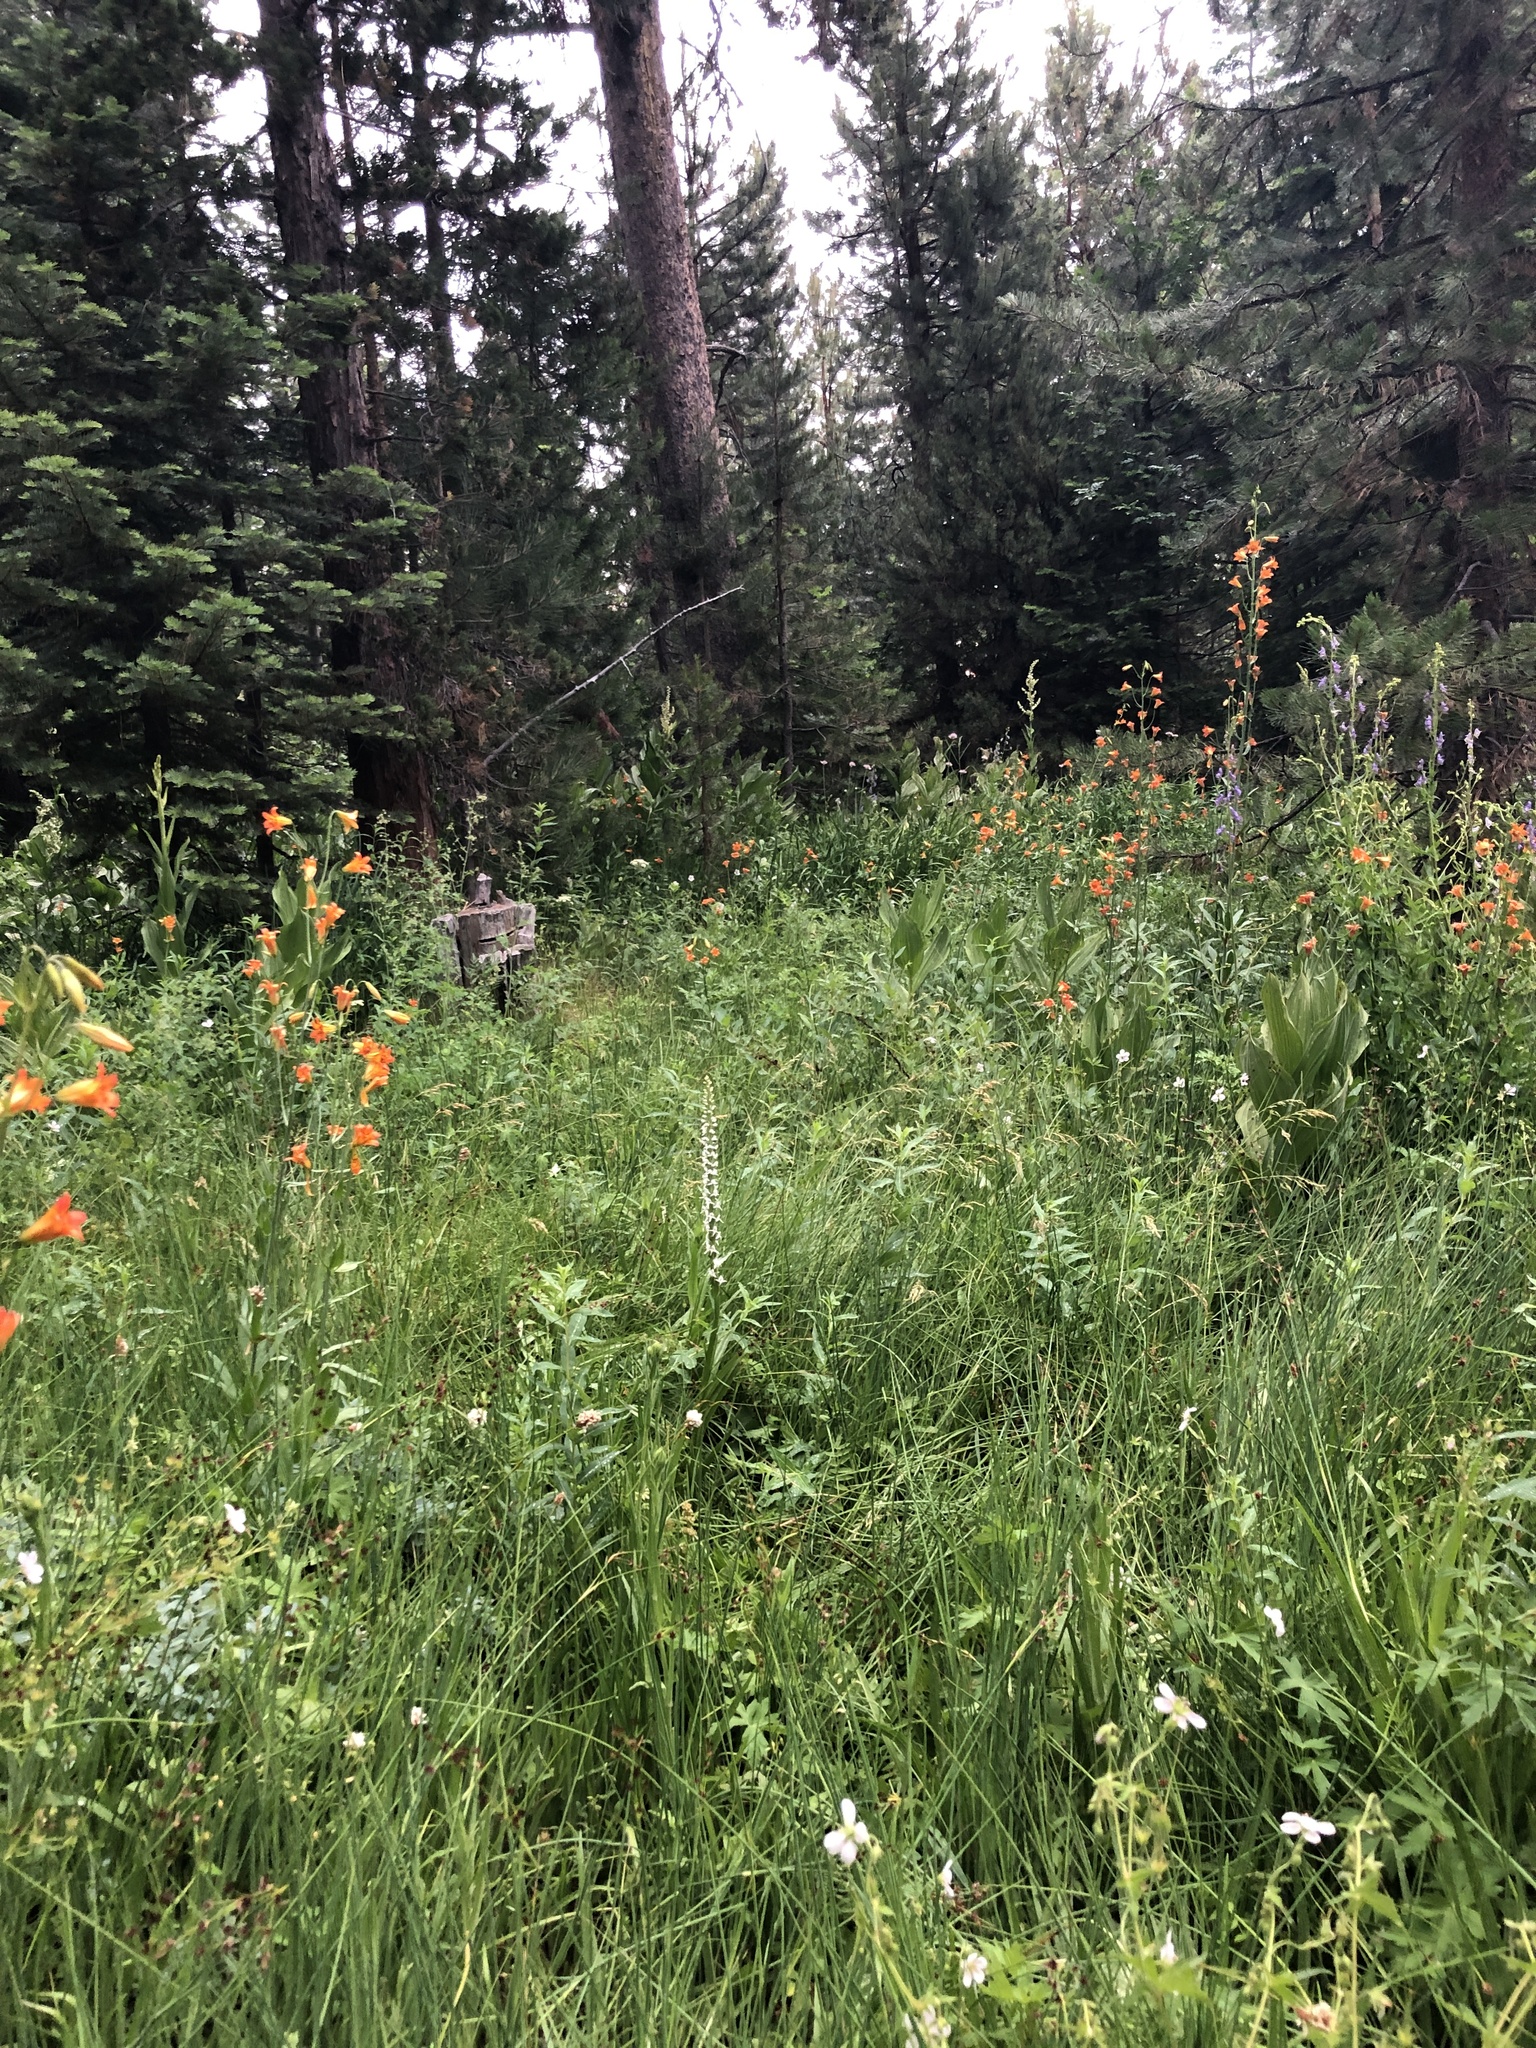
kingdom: Plantae
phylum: Tracheophyta
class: Liliopsida
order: Liliales
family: Liliaceae
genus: Lilium
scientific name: Lilium parvum
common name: Alpine lily
